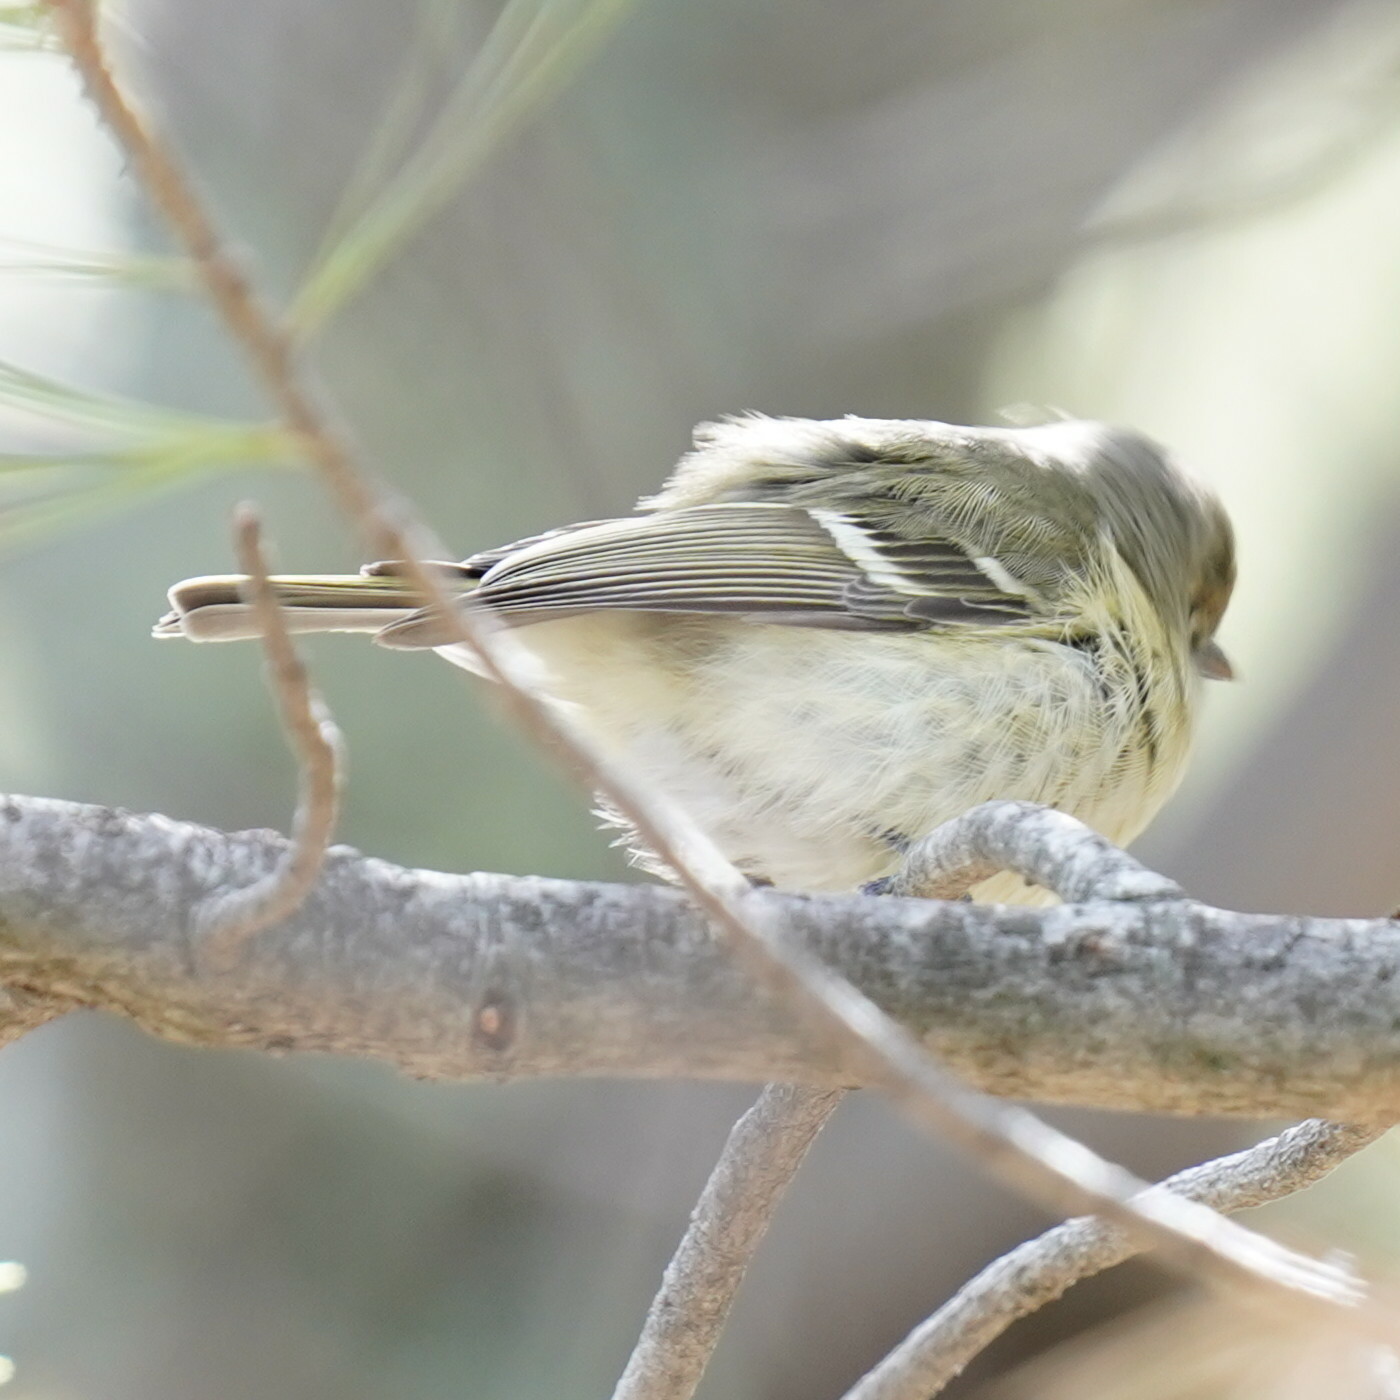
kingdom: Animalia
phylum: Chordata
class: Aves
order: Passeriformes
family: Vireonidae
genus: Vireo
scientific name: Vireo huttoni
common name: Hutton's vireo
